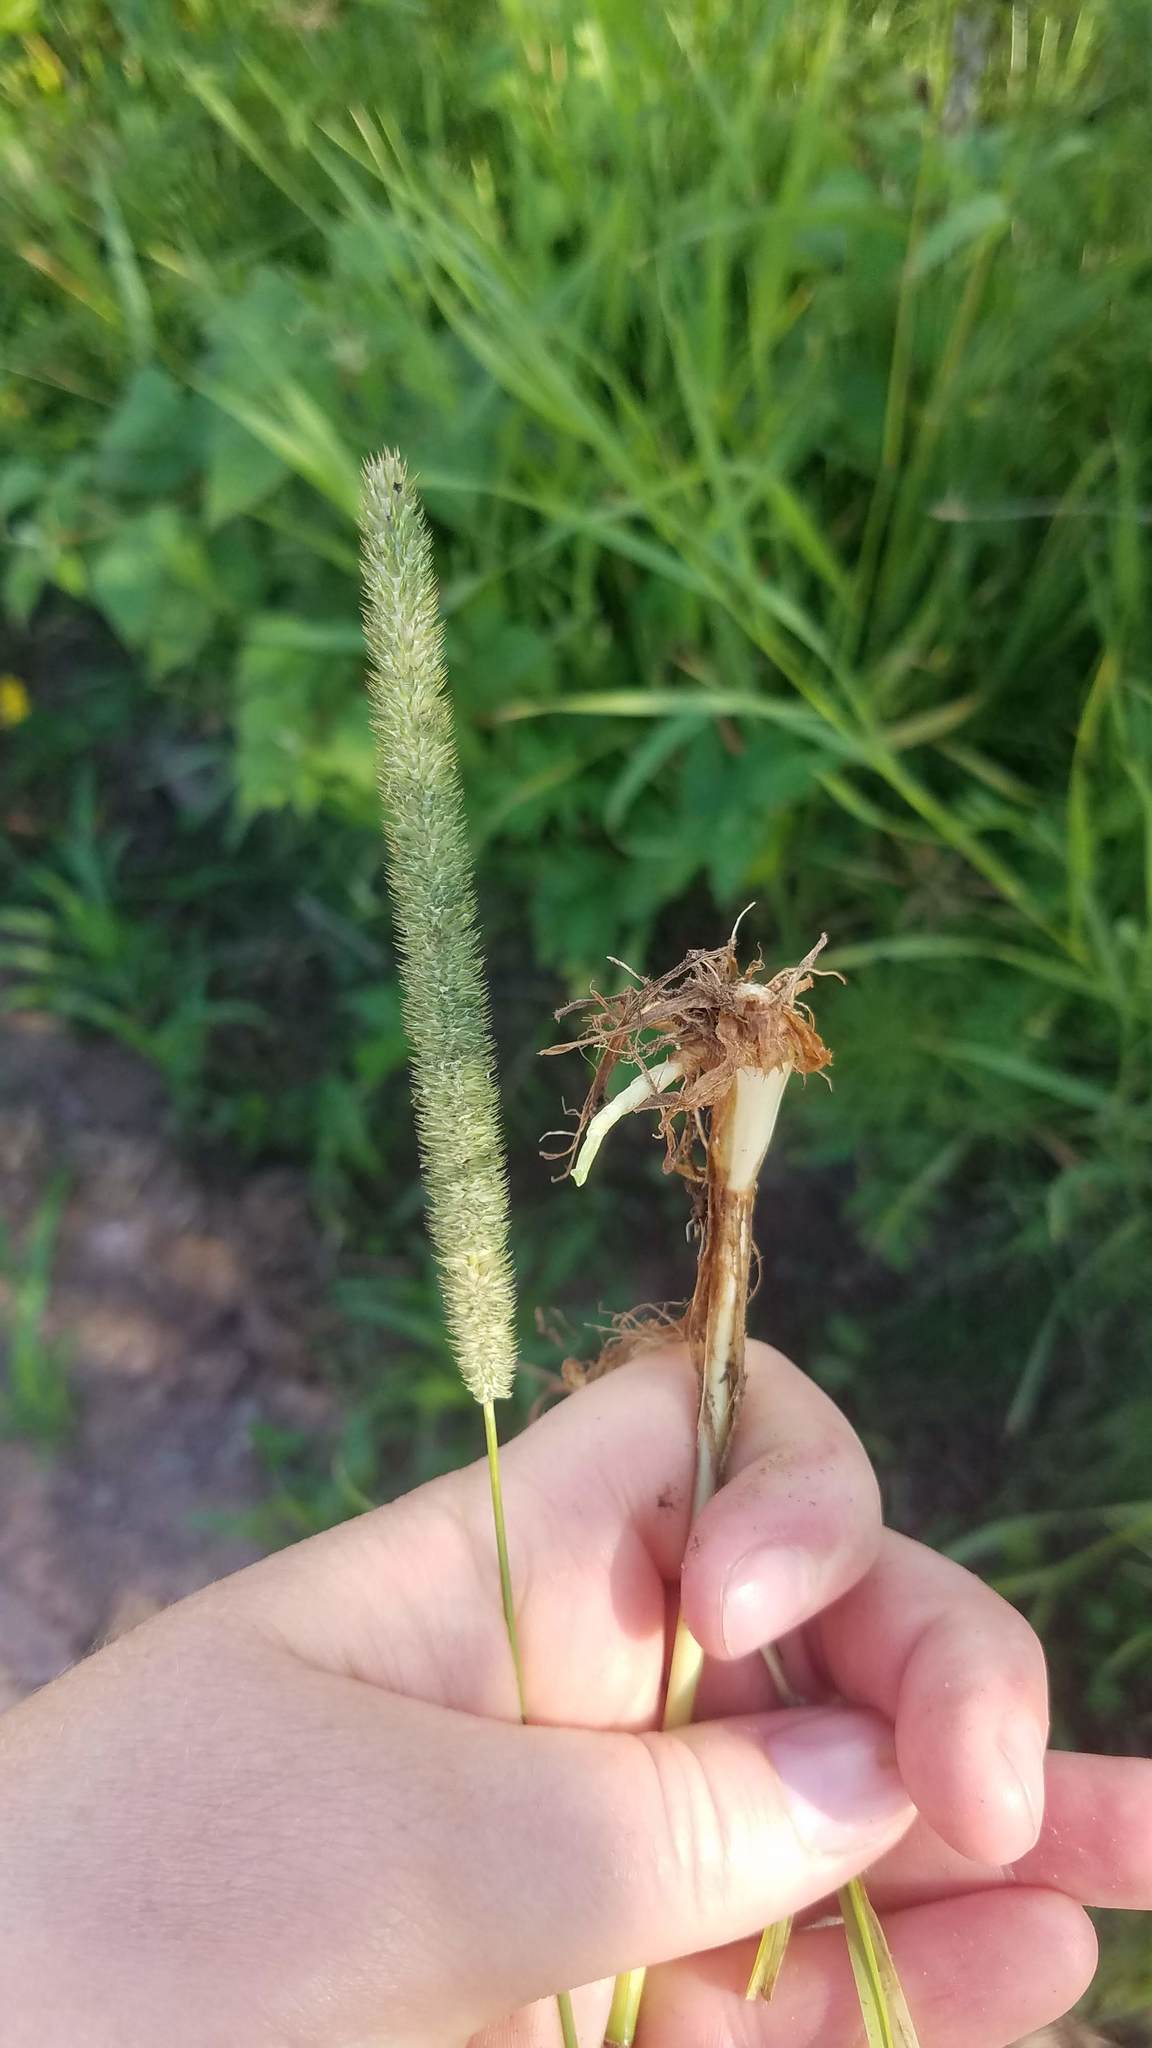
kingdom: Plantae
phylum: Tracheophyta
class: Liliopsida
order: Poales
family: Poaceae
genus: Phleum
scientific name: Phleum pratense
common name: Timothy grass
